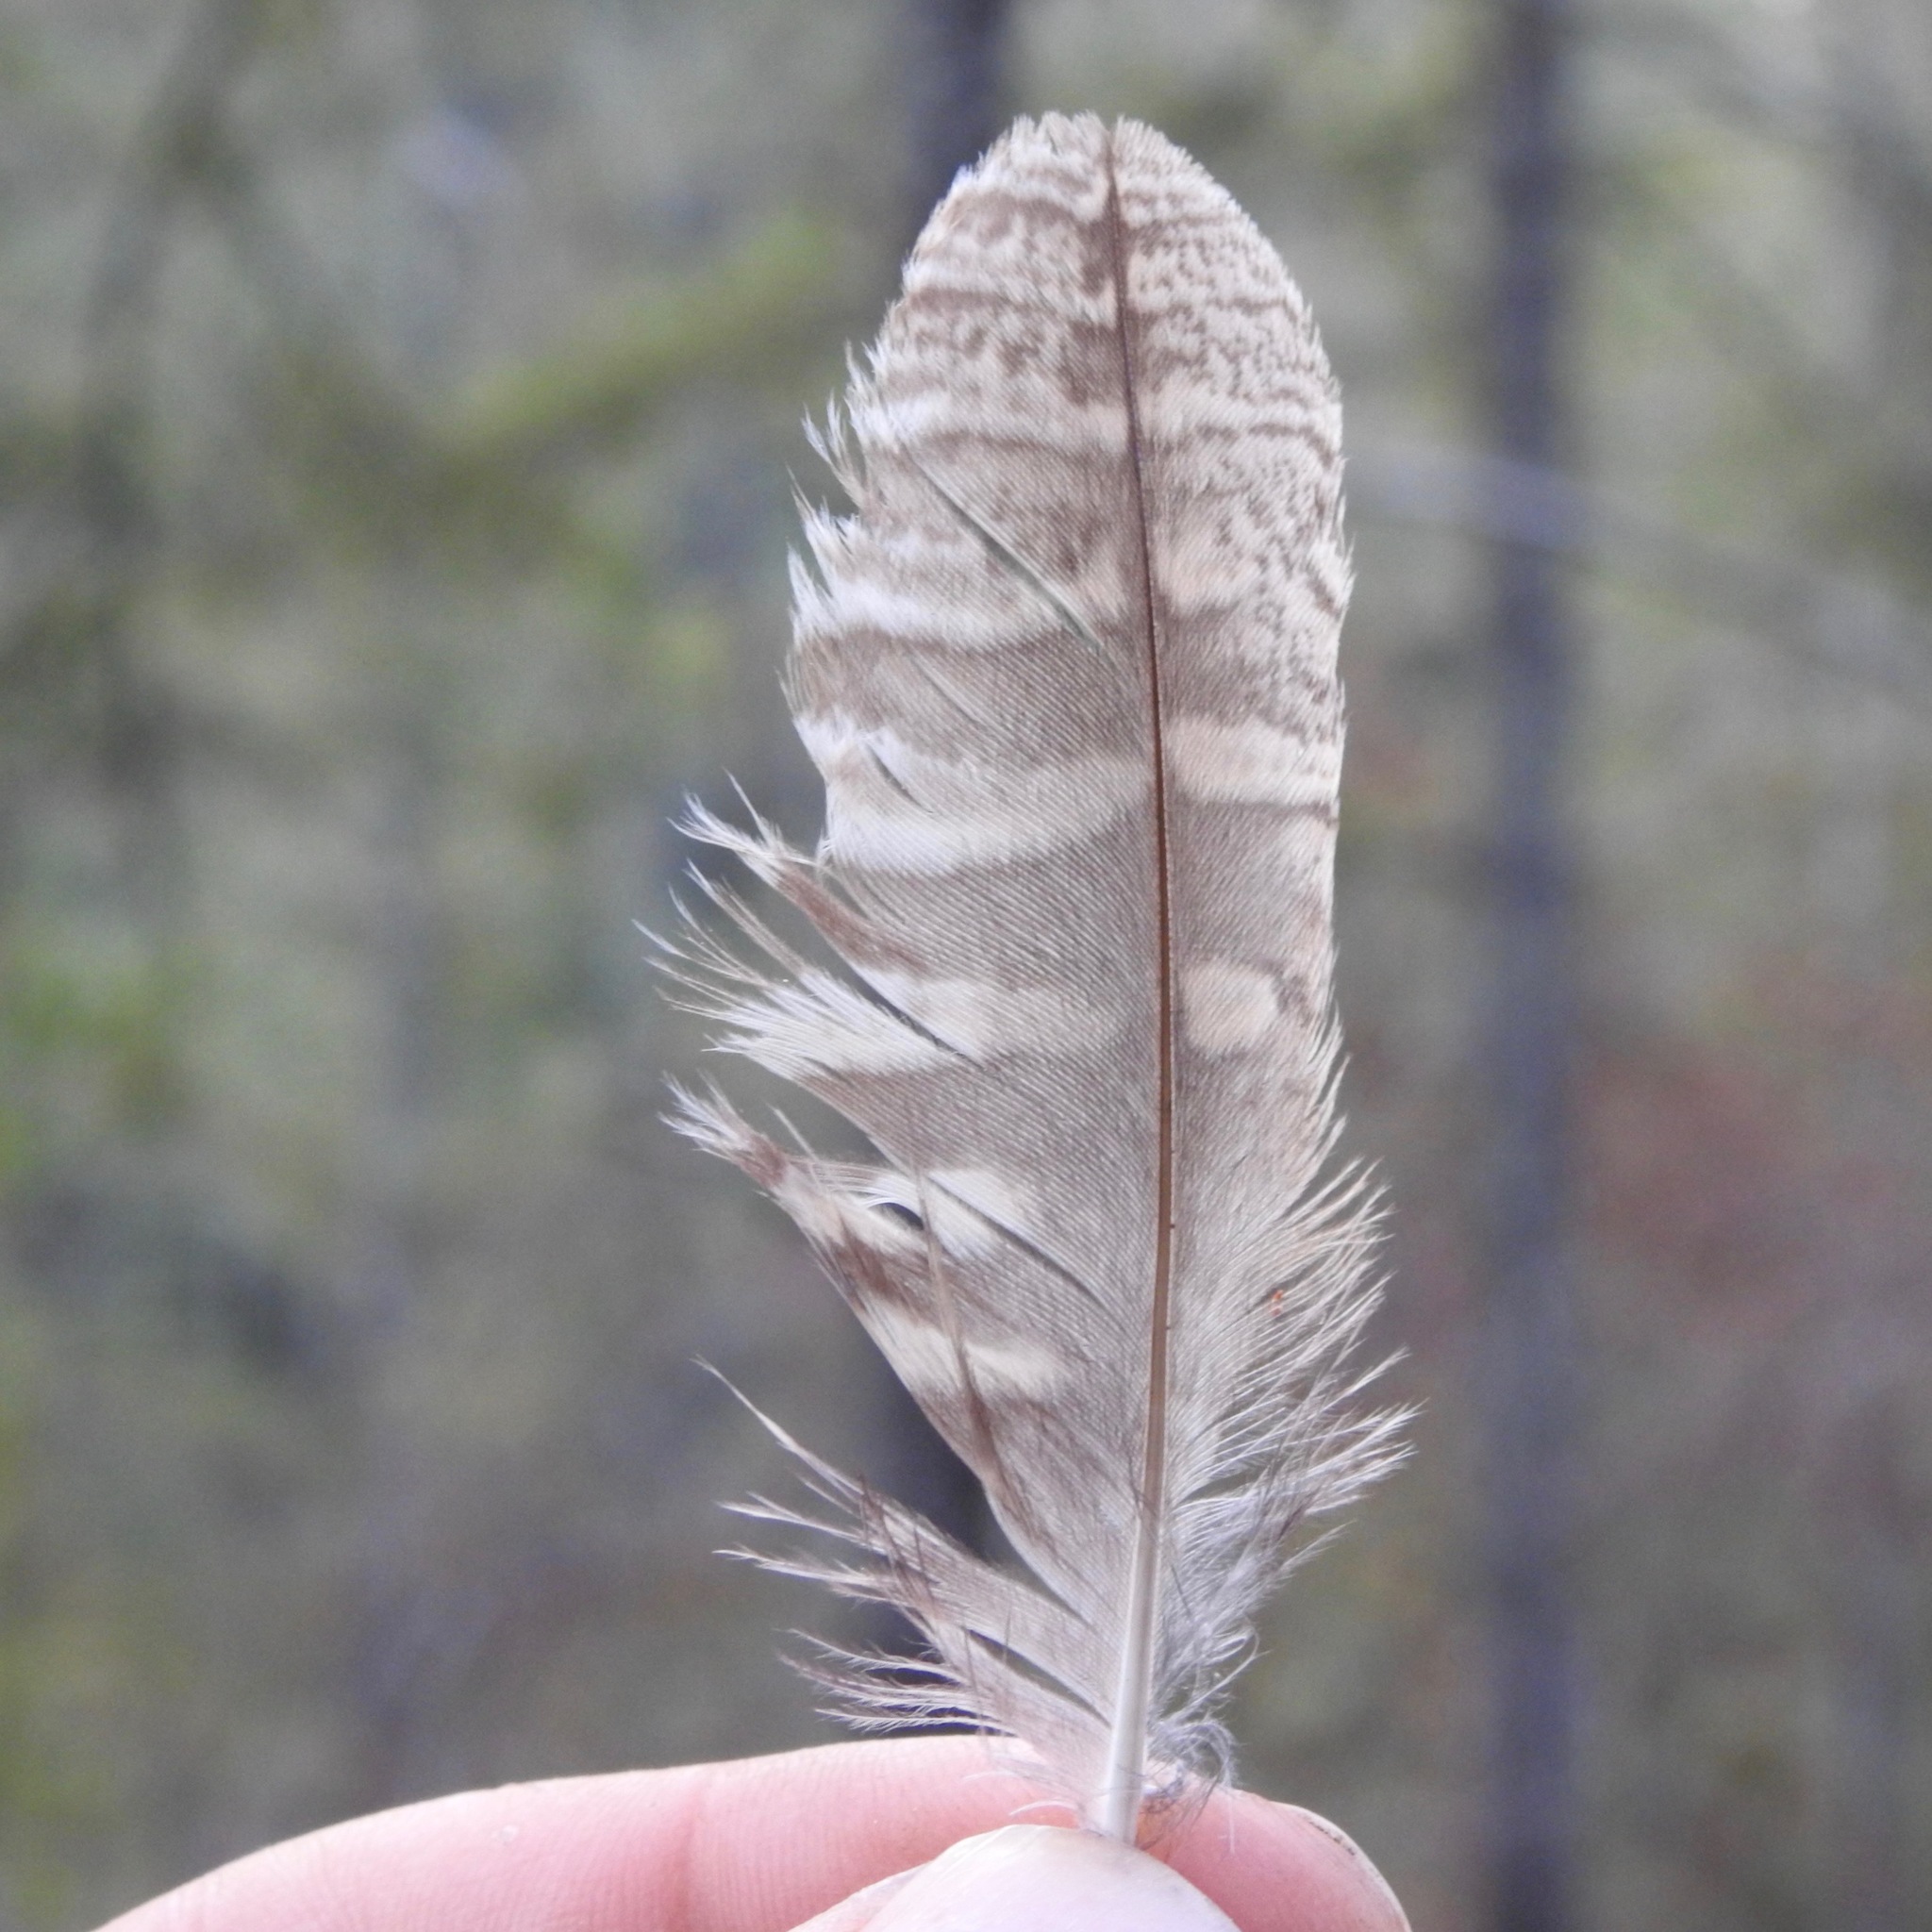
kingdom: Animalia
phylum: Chordata
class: Aves
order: Strigiformes
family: Strigidae
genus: Megascops
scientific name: Megascops kennicottii
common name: Western screech-owl
